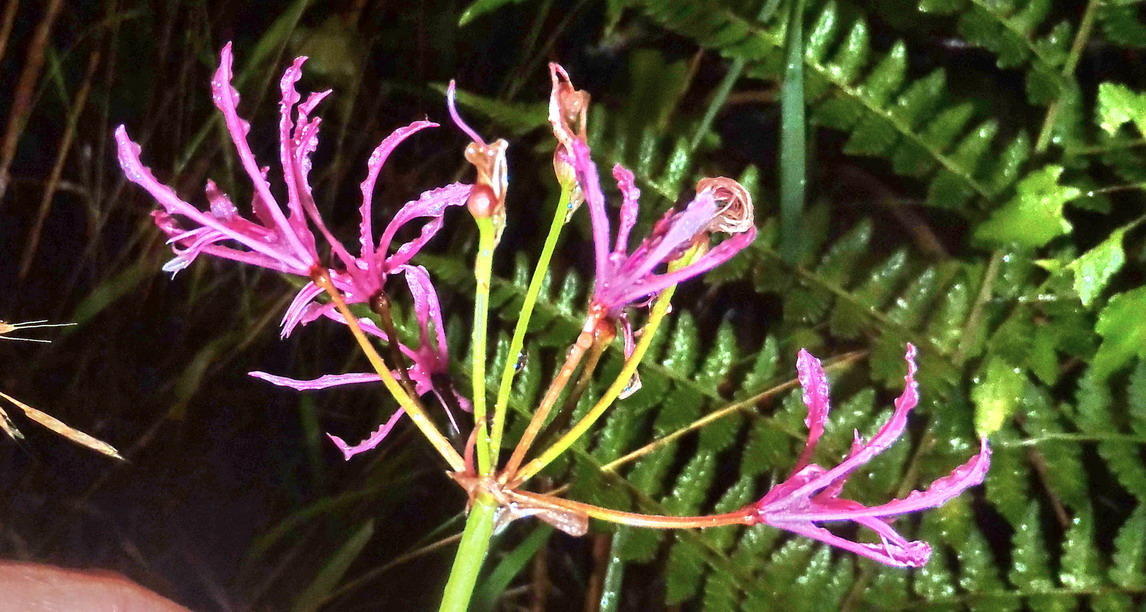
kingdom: Plantae
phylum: Tracheophyta
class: Liliopsida
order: Asparagales
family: Amaryllidaceae
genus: Nerine
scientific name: Nerine undulata
